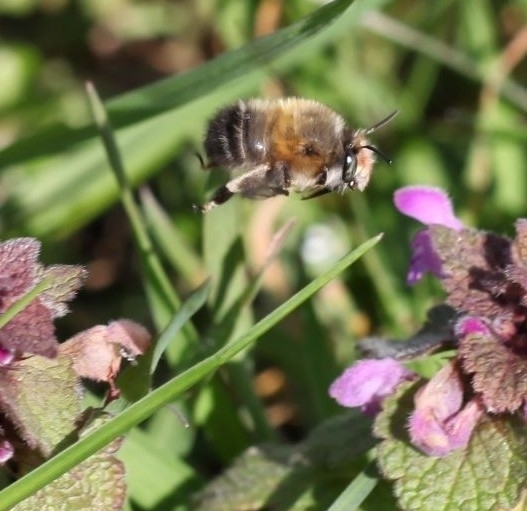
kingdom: Animalia
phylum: Arthropoda
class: Insecta
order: Hymenoptera
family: Apidae
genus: Anthophora
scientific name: Anthophora plumipes
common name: Hairy-footed flower bee
